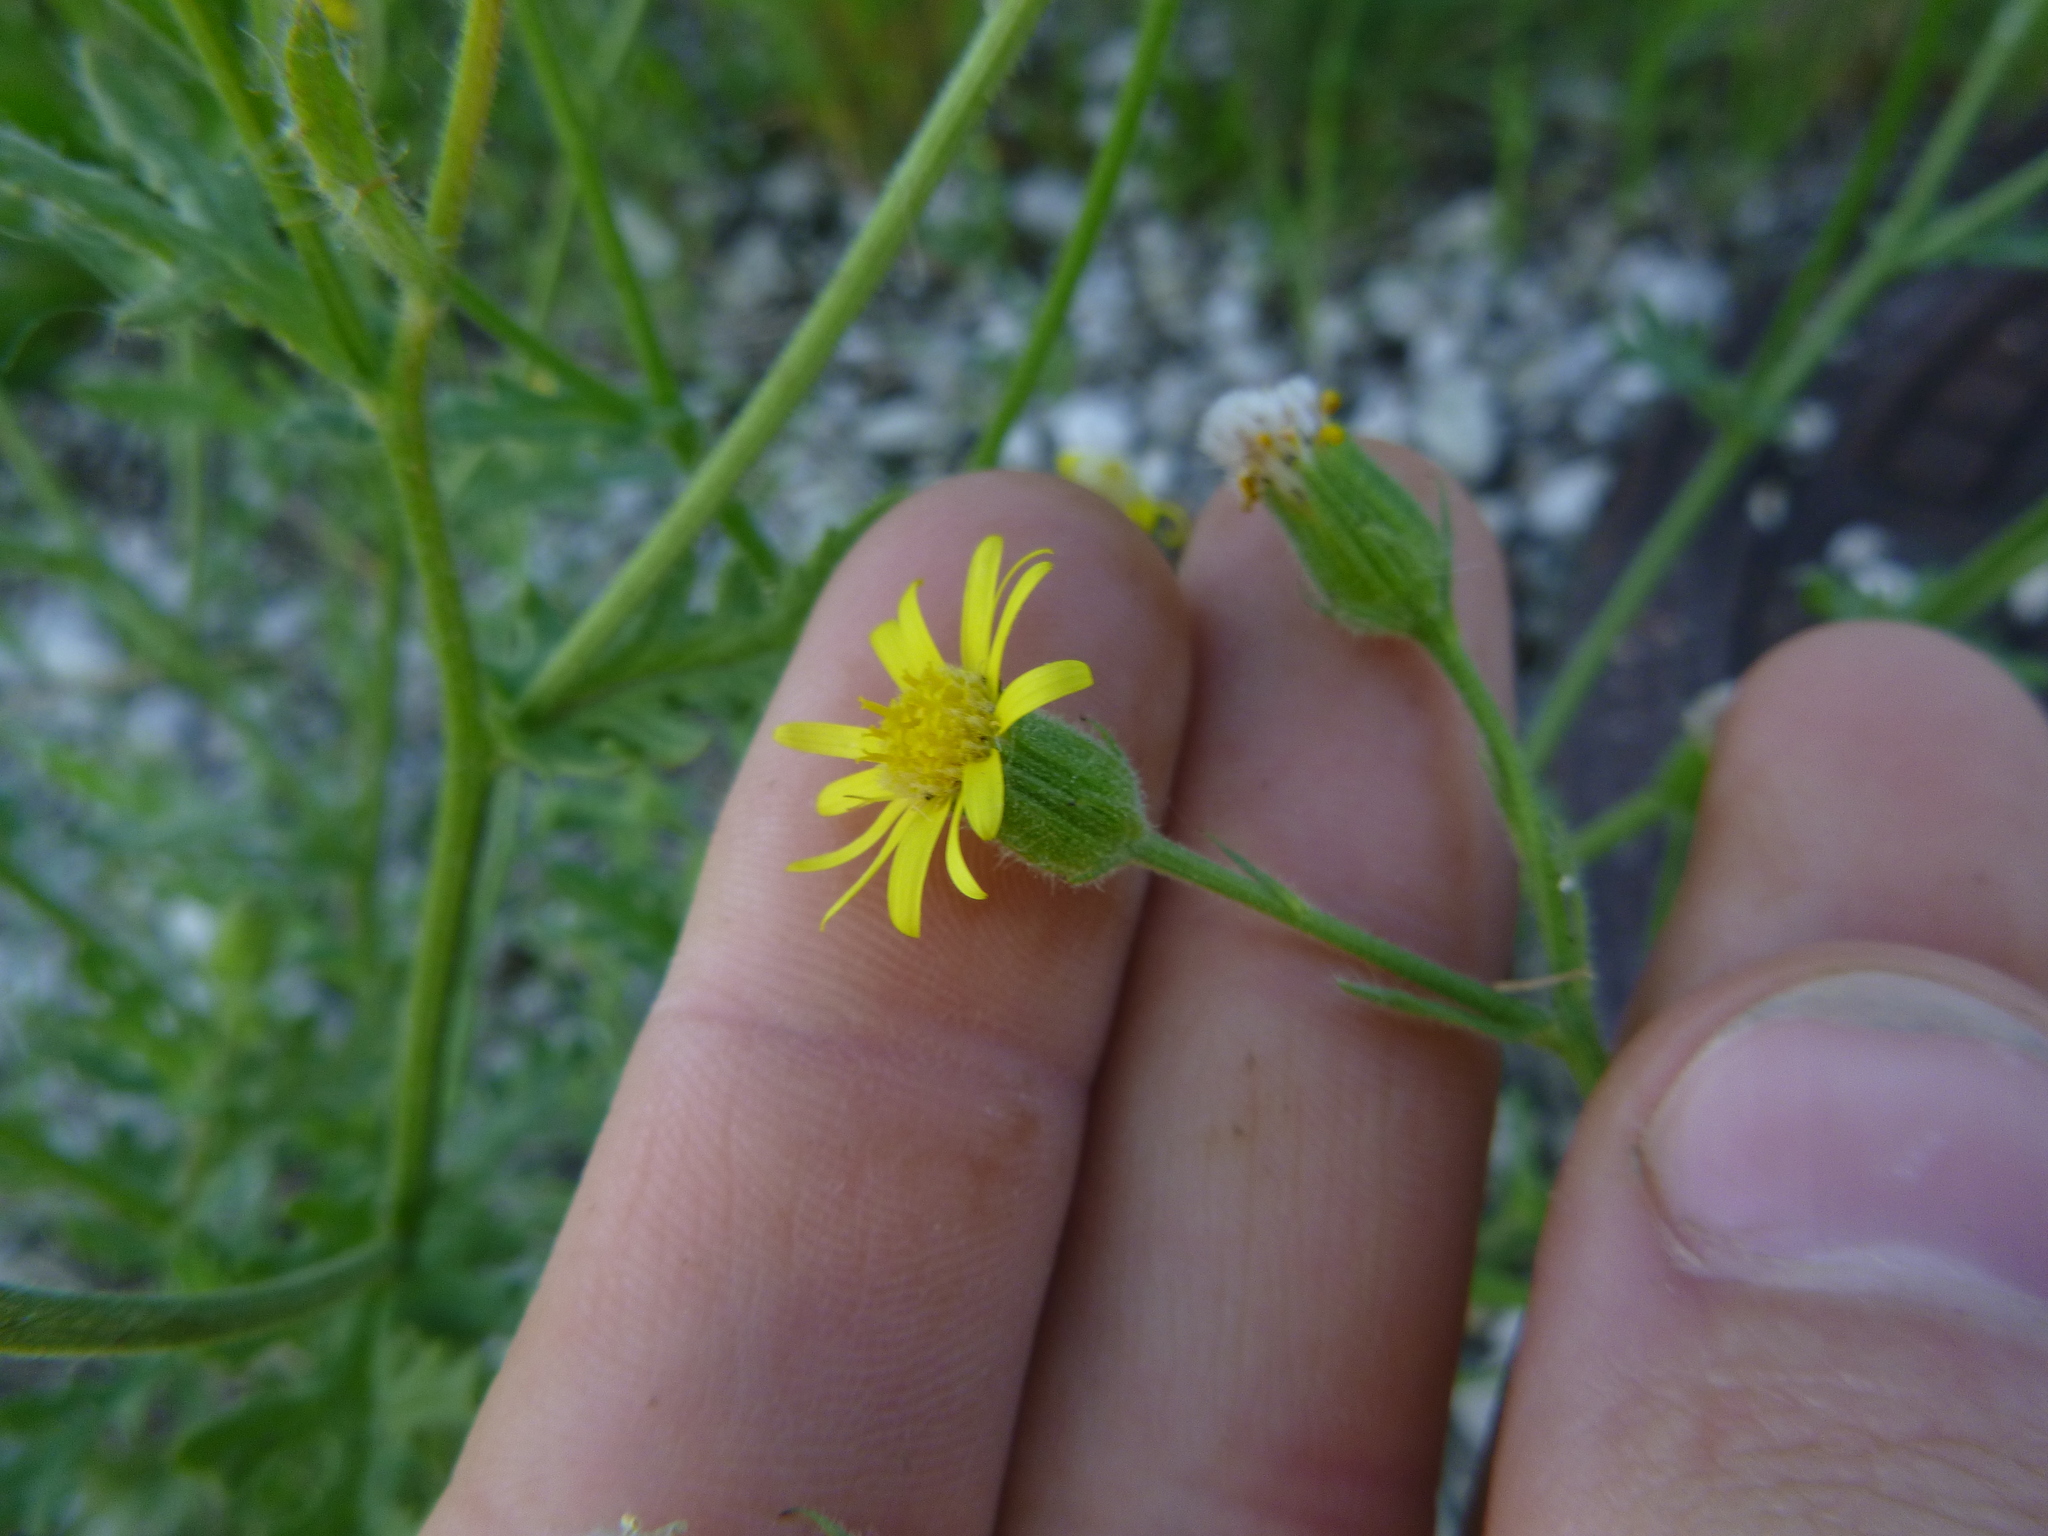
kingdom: Plantae
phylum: Tracheophyta
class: Magnoliopsida
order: Asterales
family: Asteraceae
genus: Senecio
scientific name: Senecio viscosus
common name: Sticky groundsel
